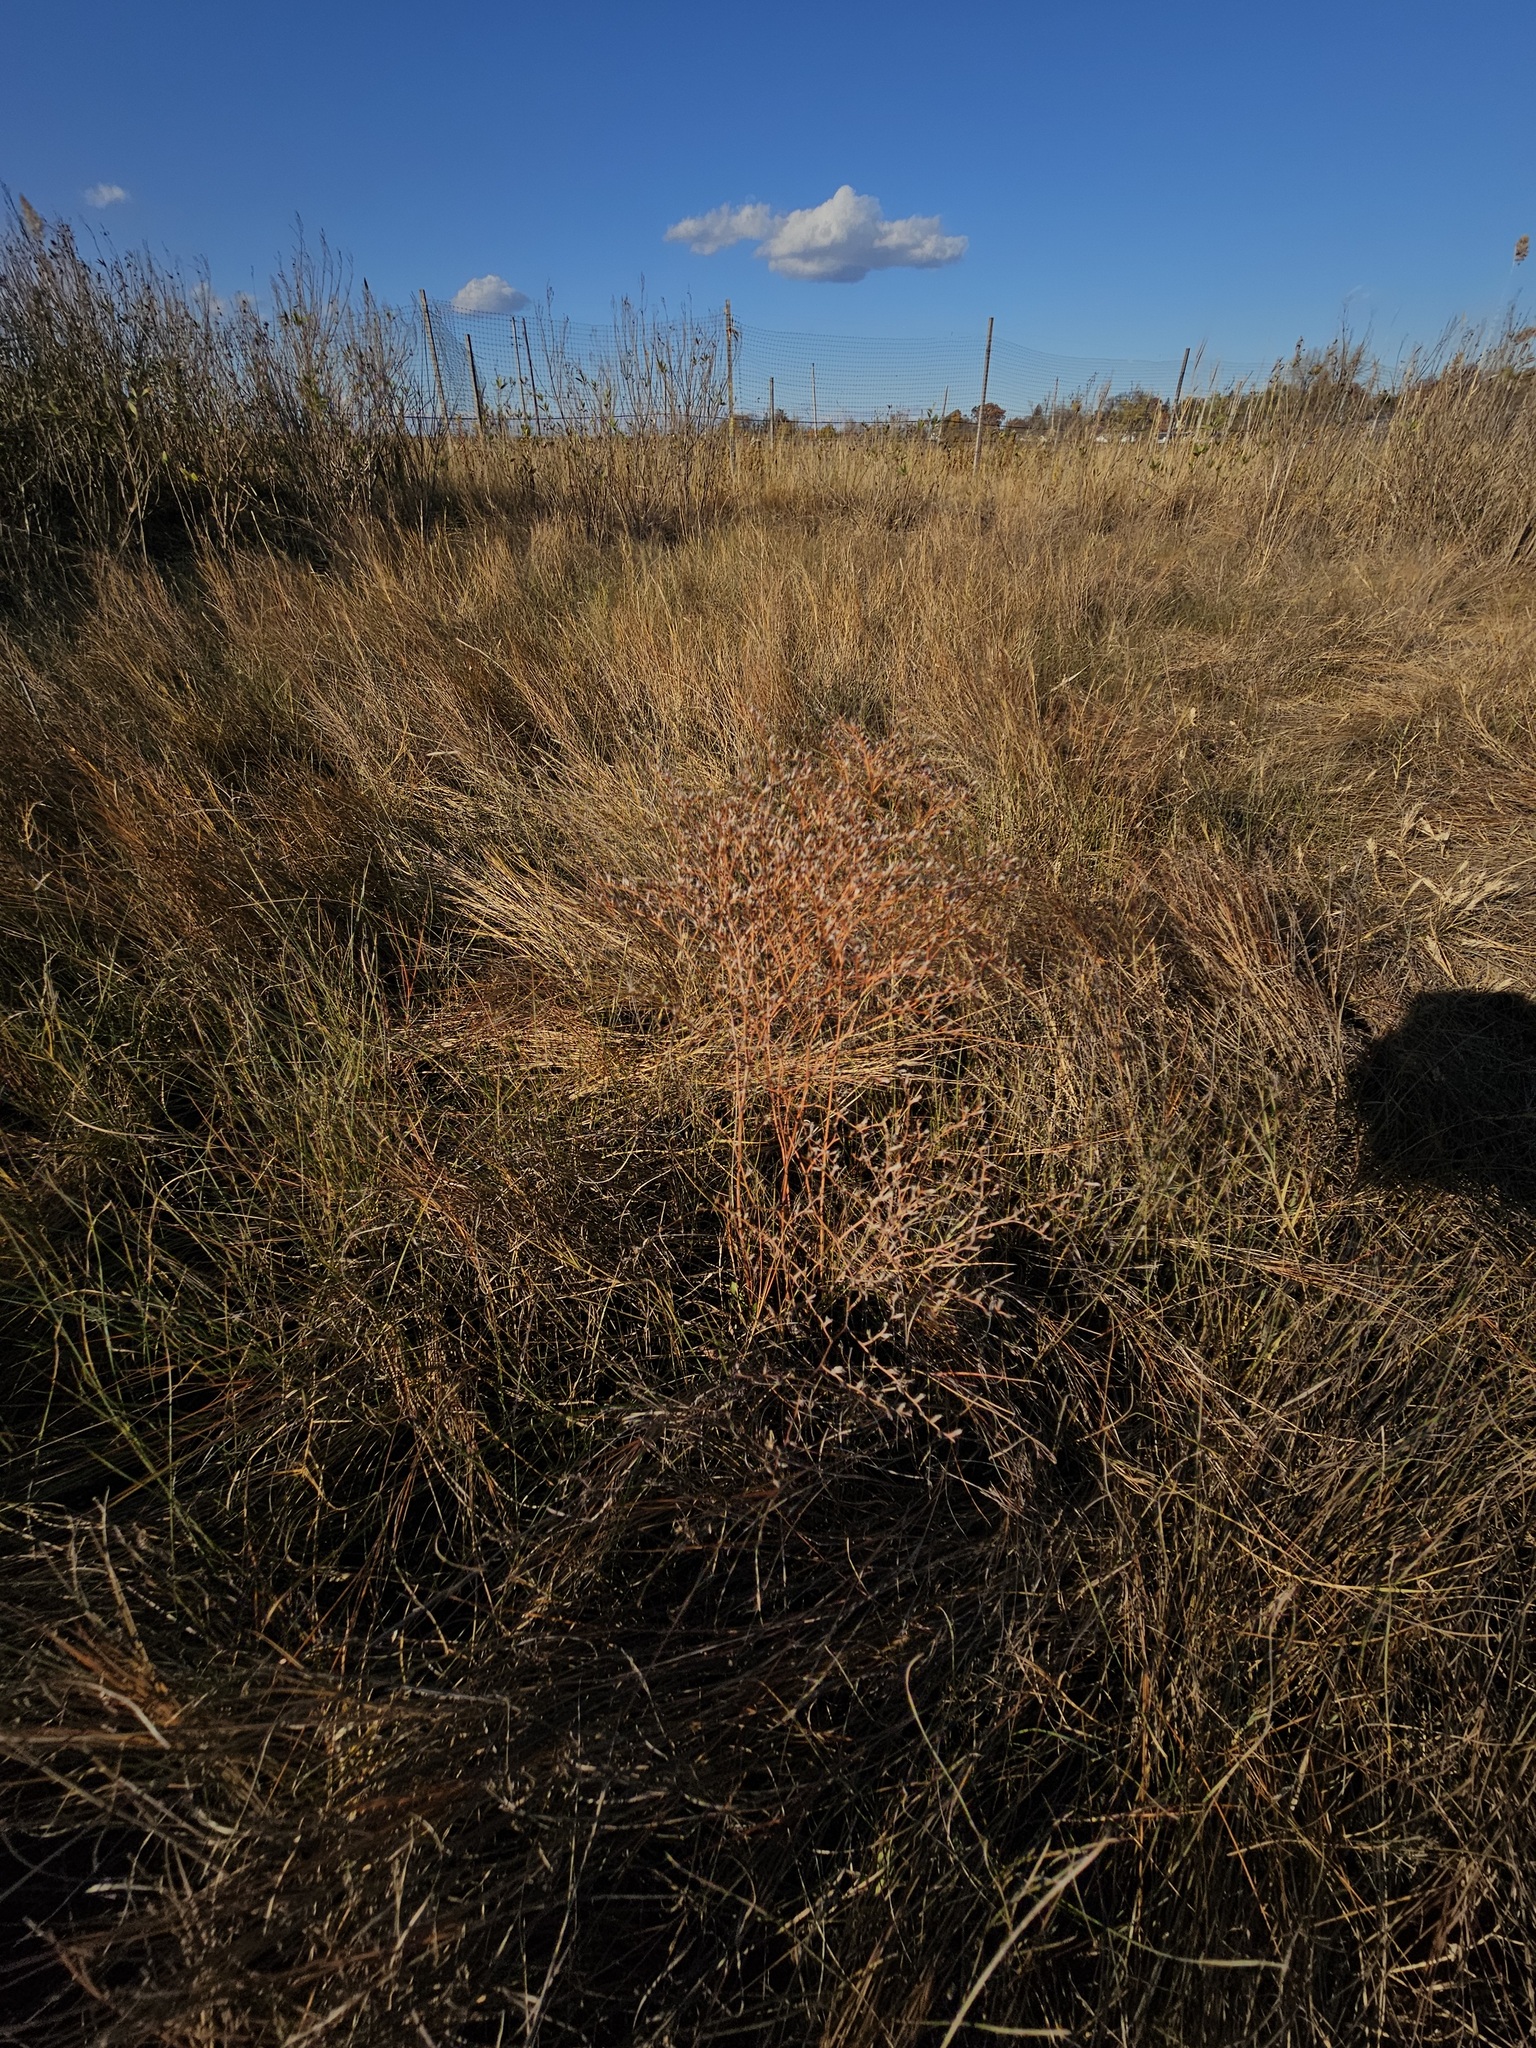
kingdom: Plantae
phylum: Tracheophyta
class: Magnoliopsida
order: Caryophyllales
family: Plumbaginaceae
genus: Limonium
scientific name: Limonium carolinianum
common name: Carolina sea lavender
